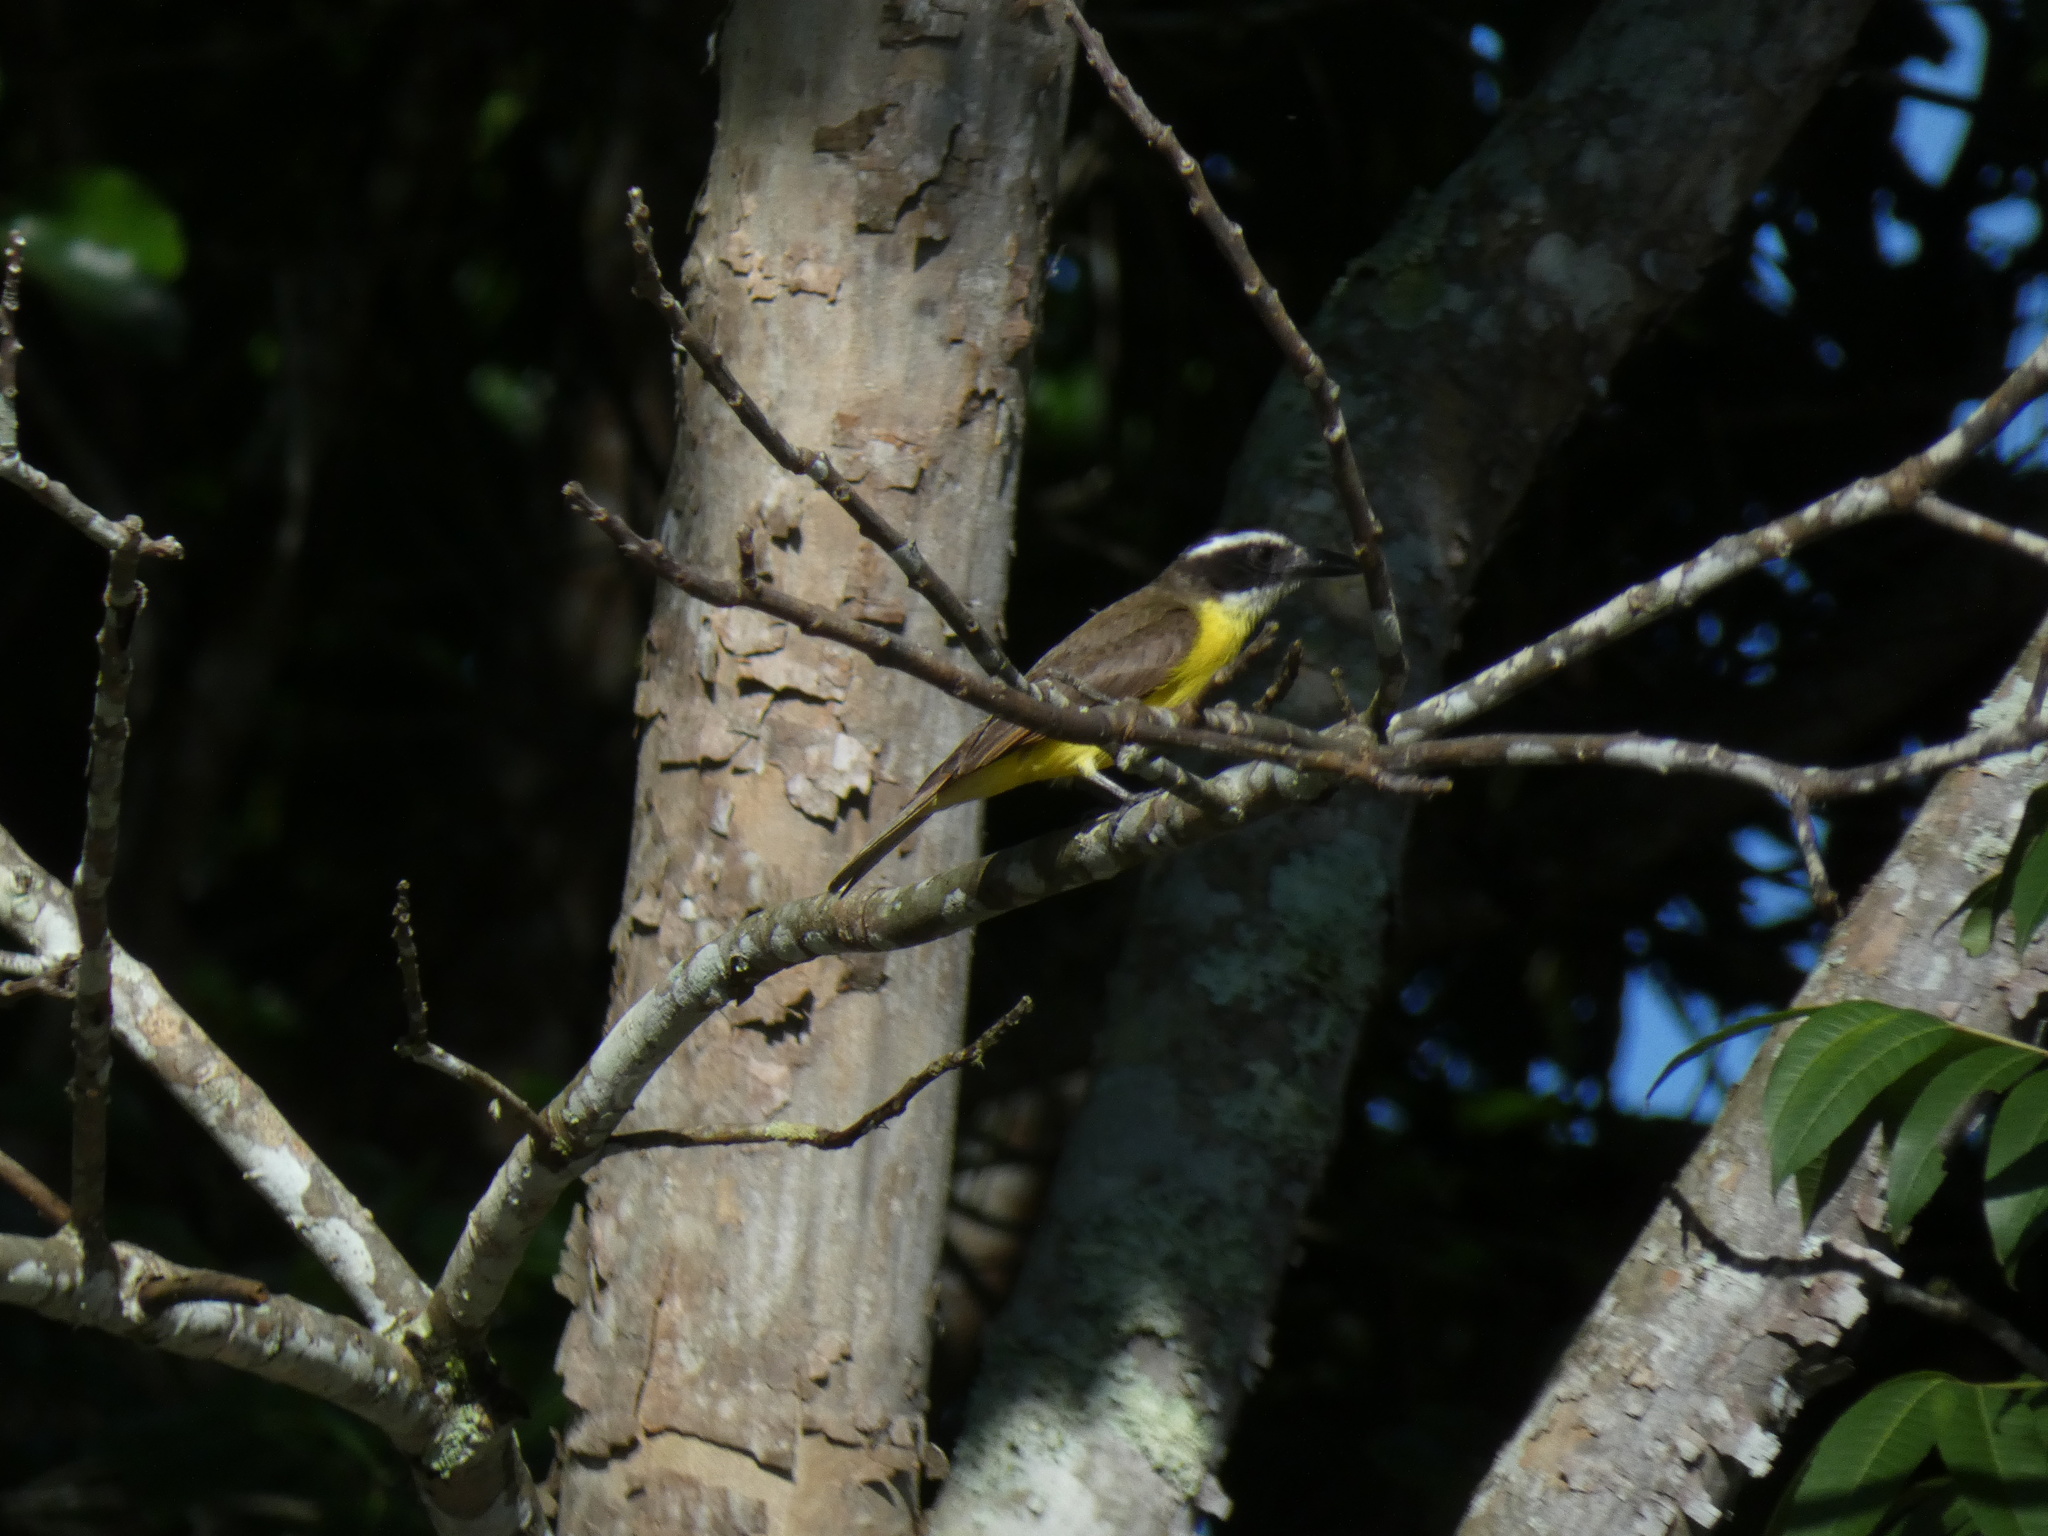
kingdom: Animalia
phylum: Chordata
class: Aves
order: Passeriformes
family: Tyrannidae
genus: Megarynchus
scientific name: Megarynchus pitangua
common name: Boat-billed flycatcher
